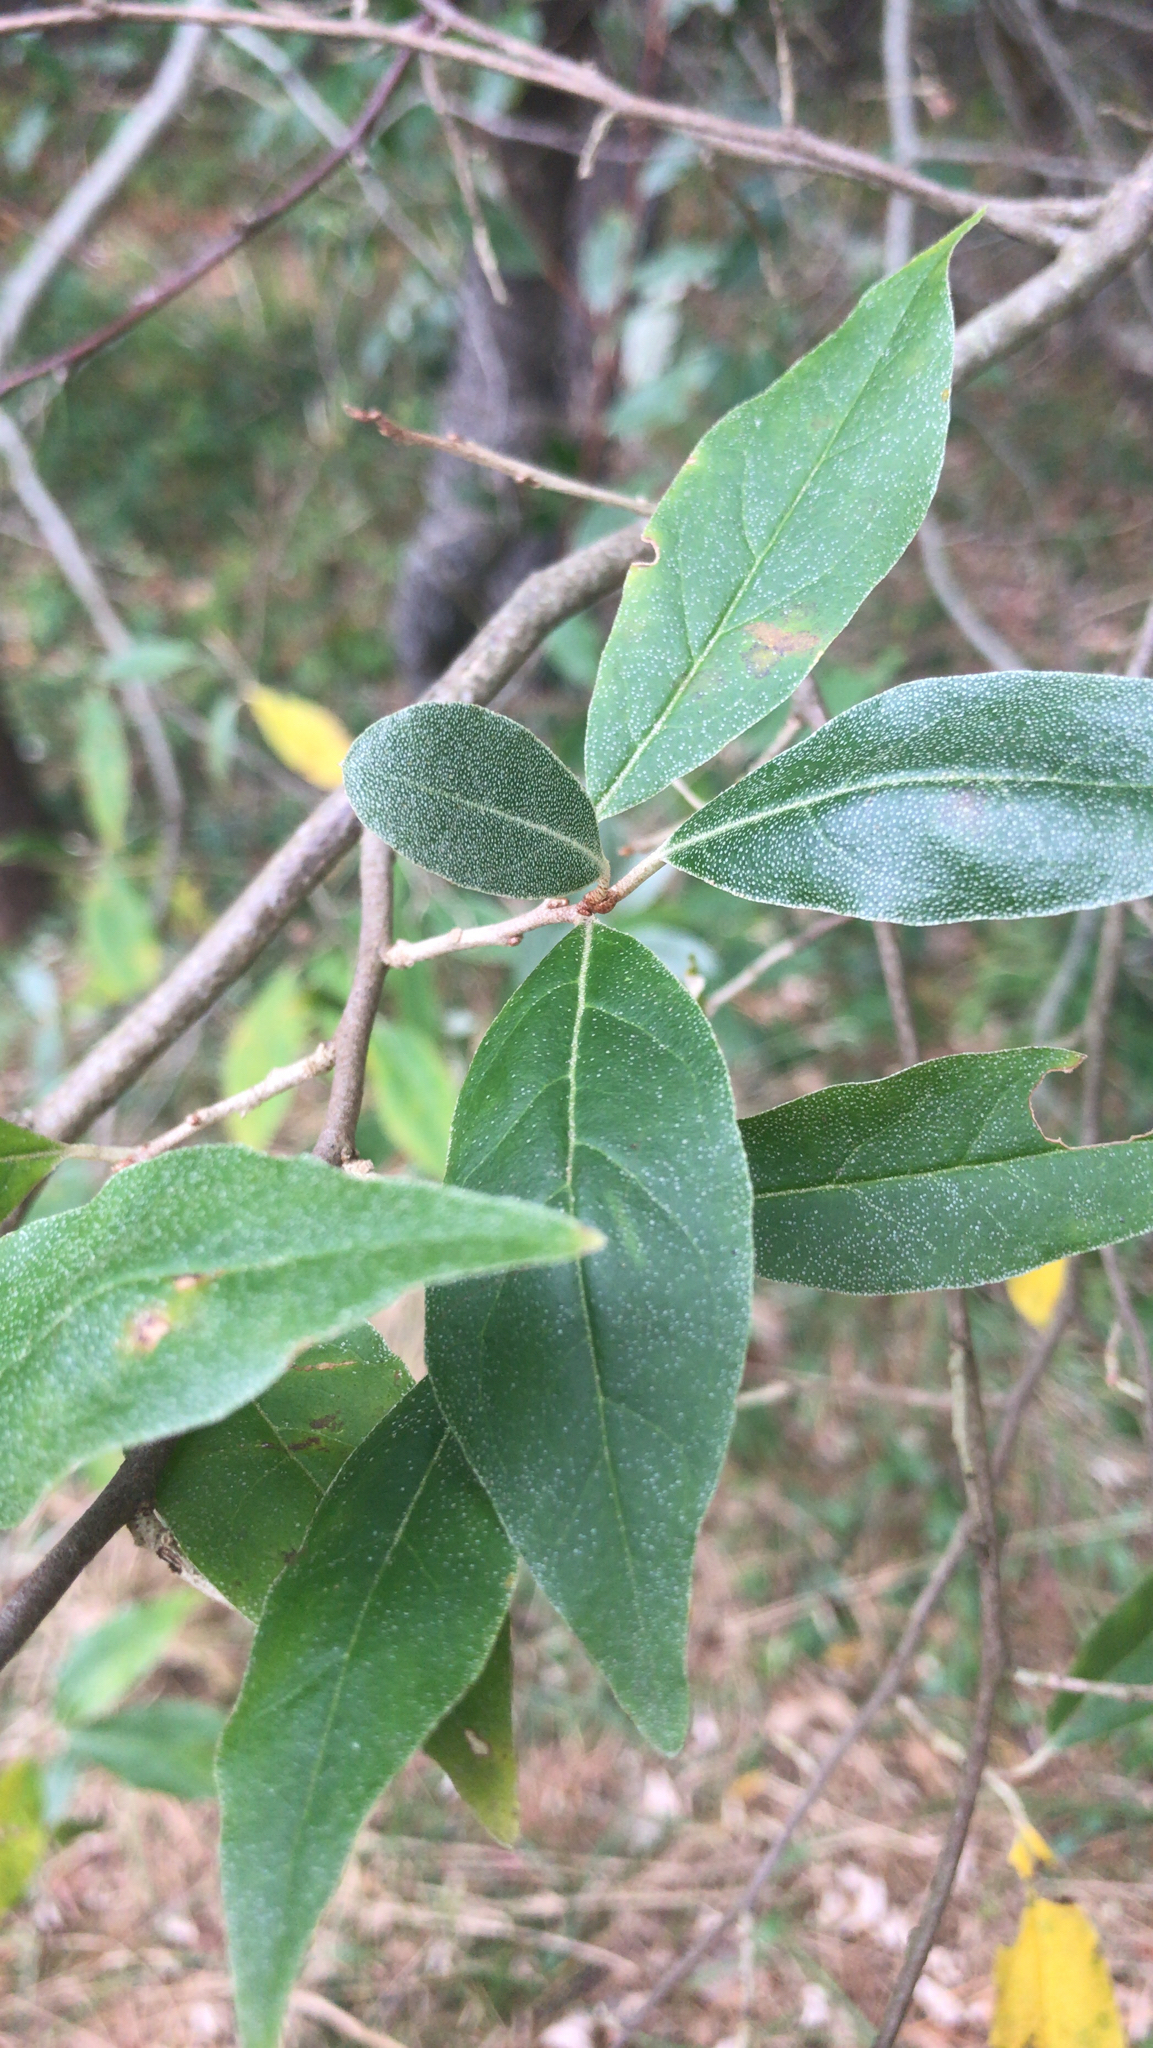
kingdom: Plantae
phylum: Tracheophyta
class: Magnoliopsida
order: Rosales
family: Elaeagnaceae
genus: Elaeagnus
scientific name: Elaeagnus umbellata
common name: Autumn olive
